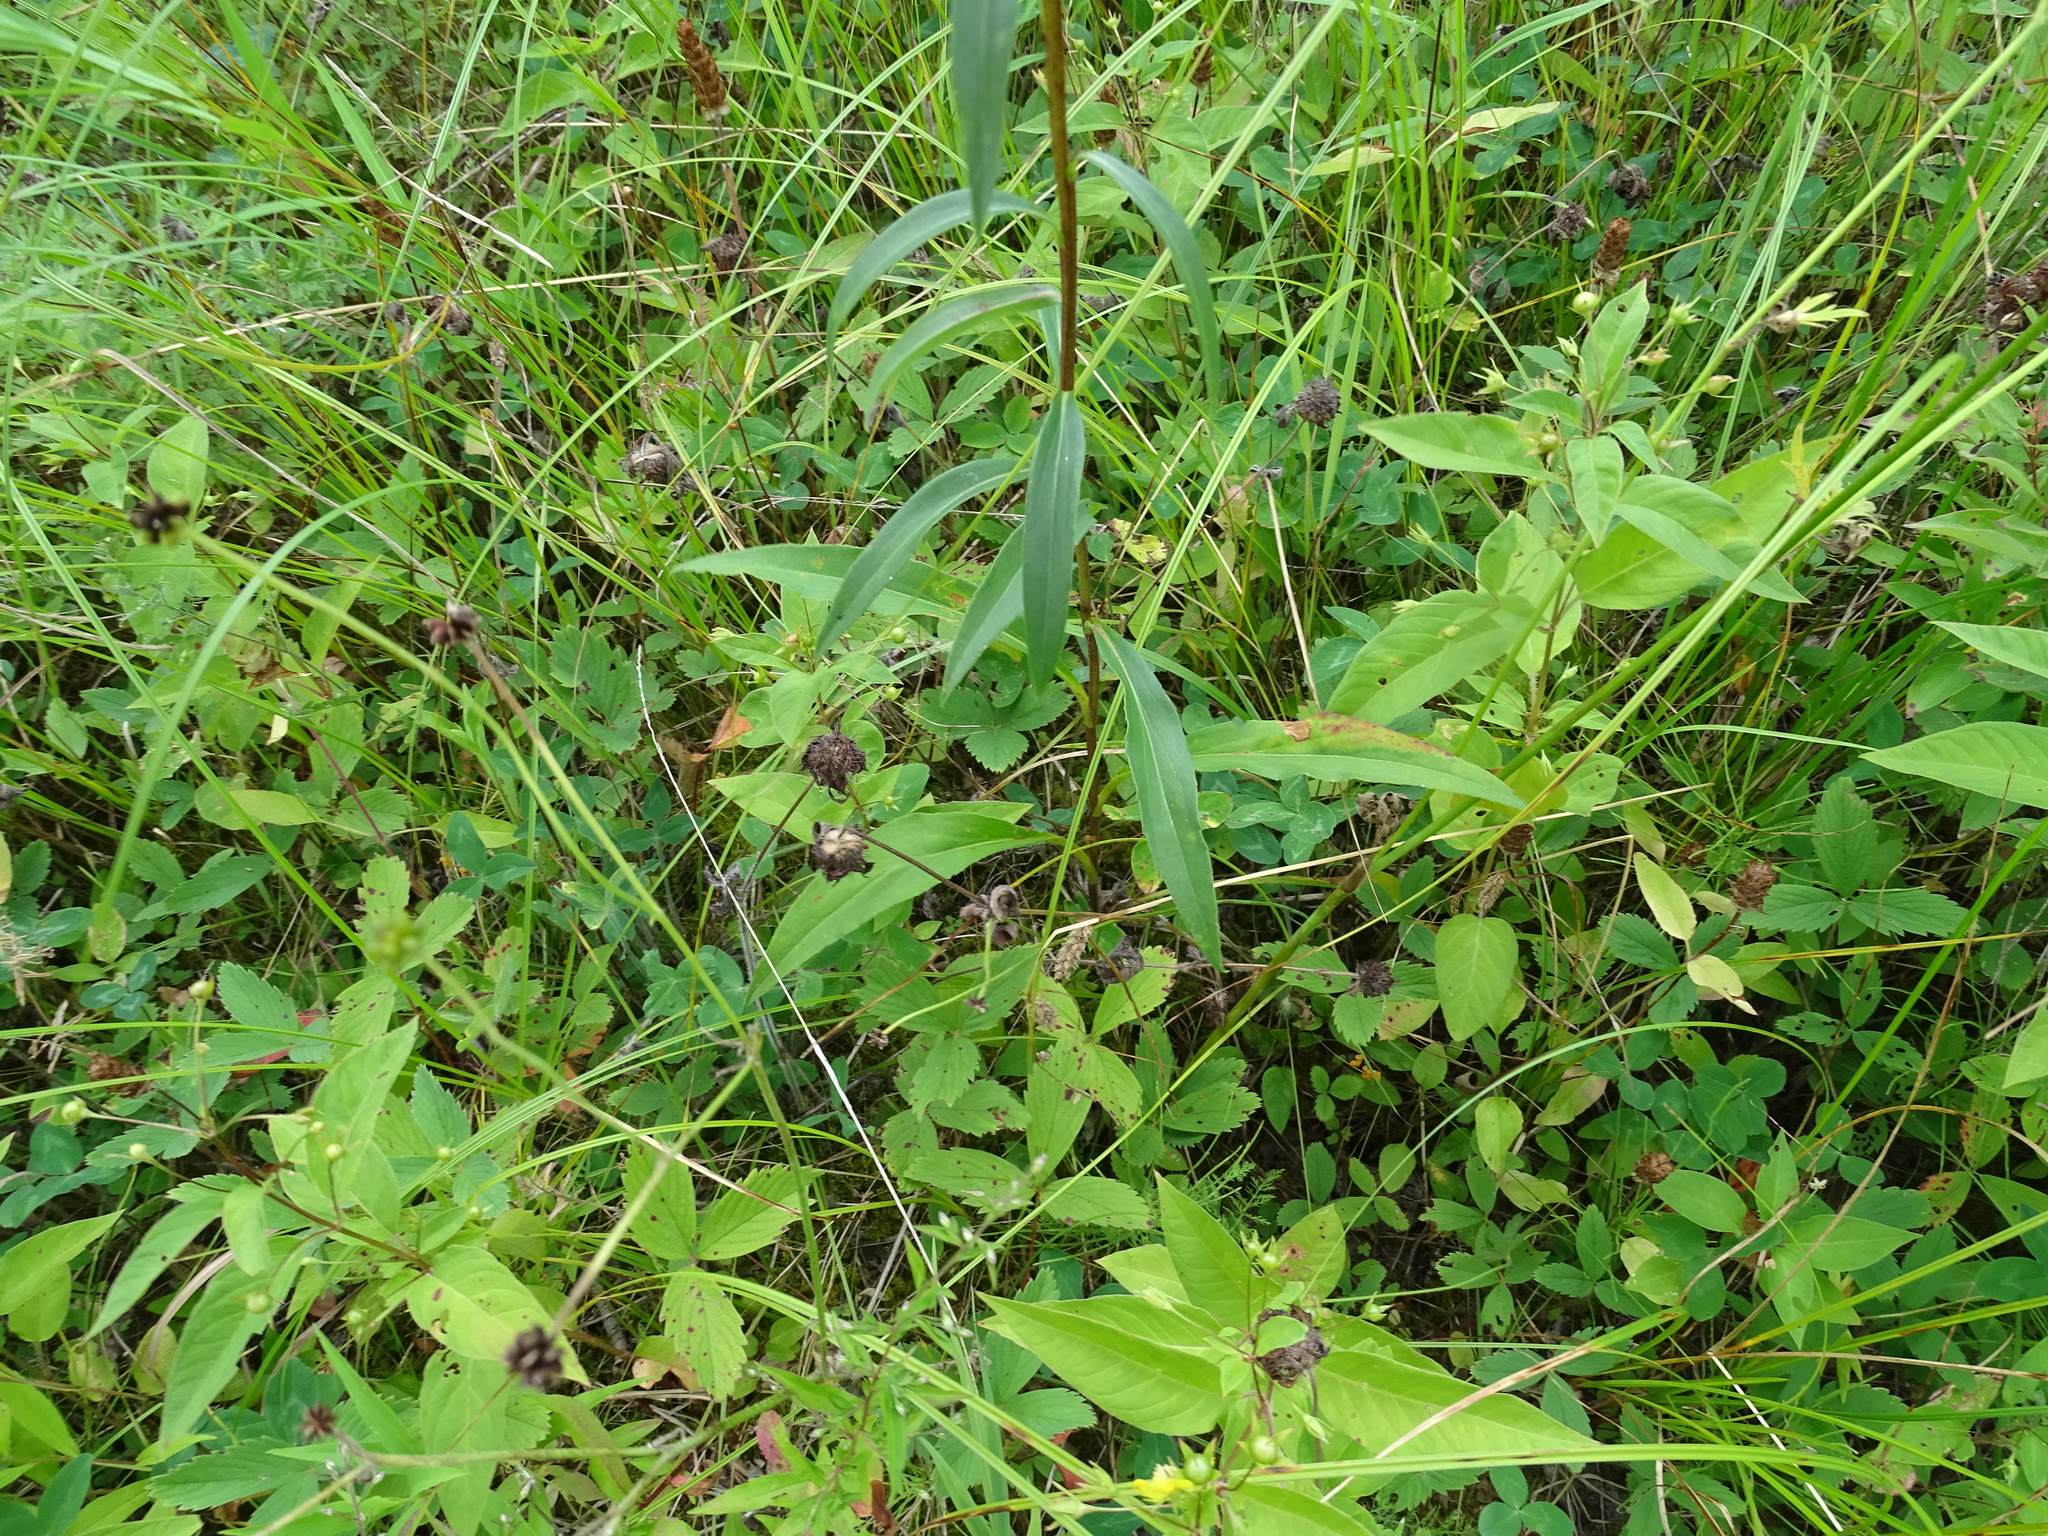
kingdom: Plantae
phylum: Tracheophyta
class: Magnoliopsida
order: Asterales
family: Asteraceae
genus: Solidago
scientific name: Solidago uliginosa
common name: Bog goldenrod
